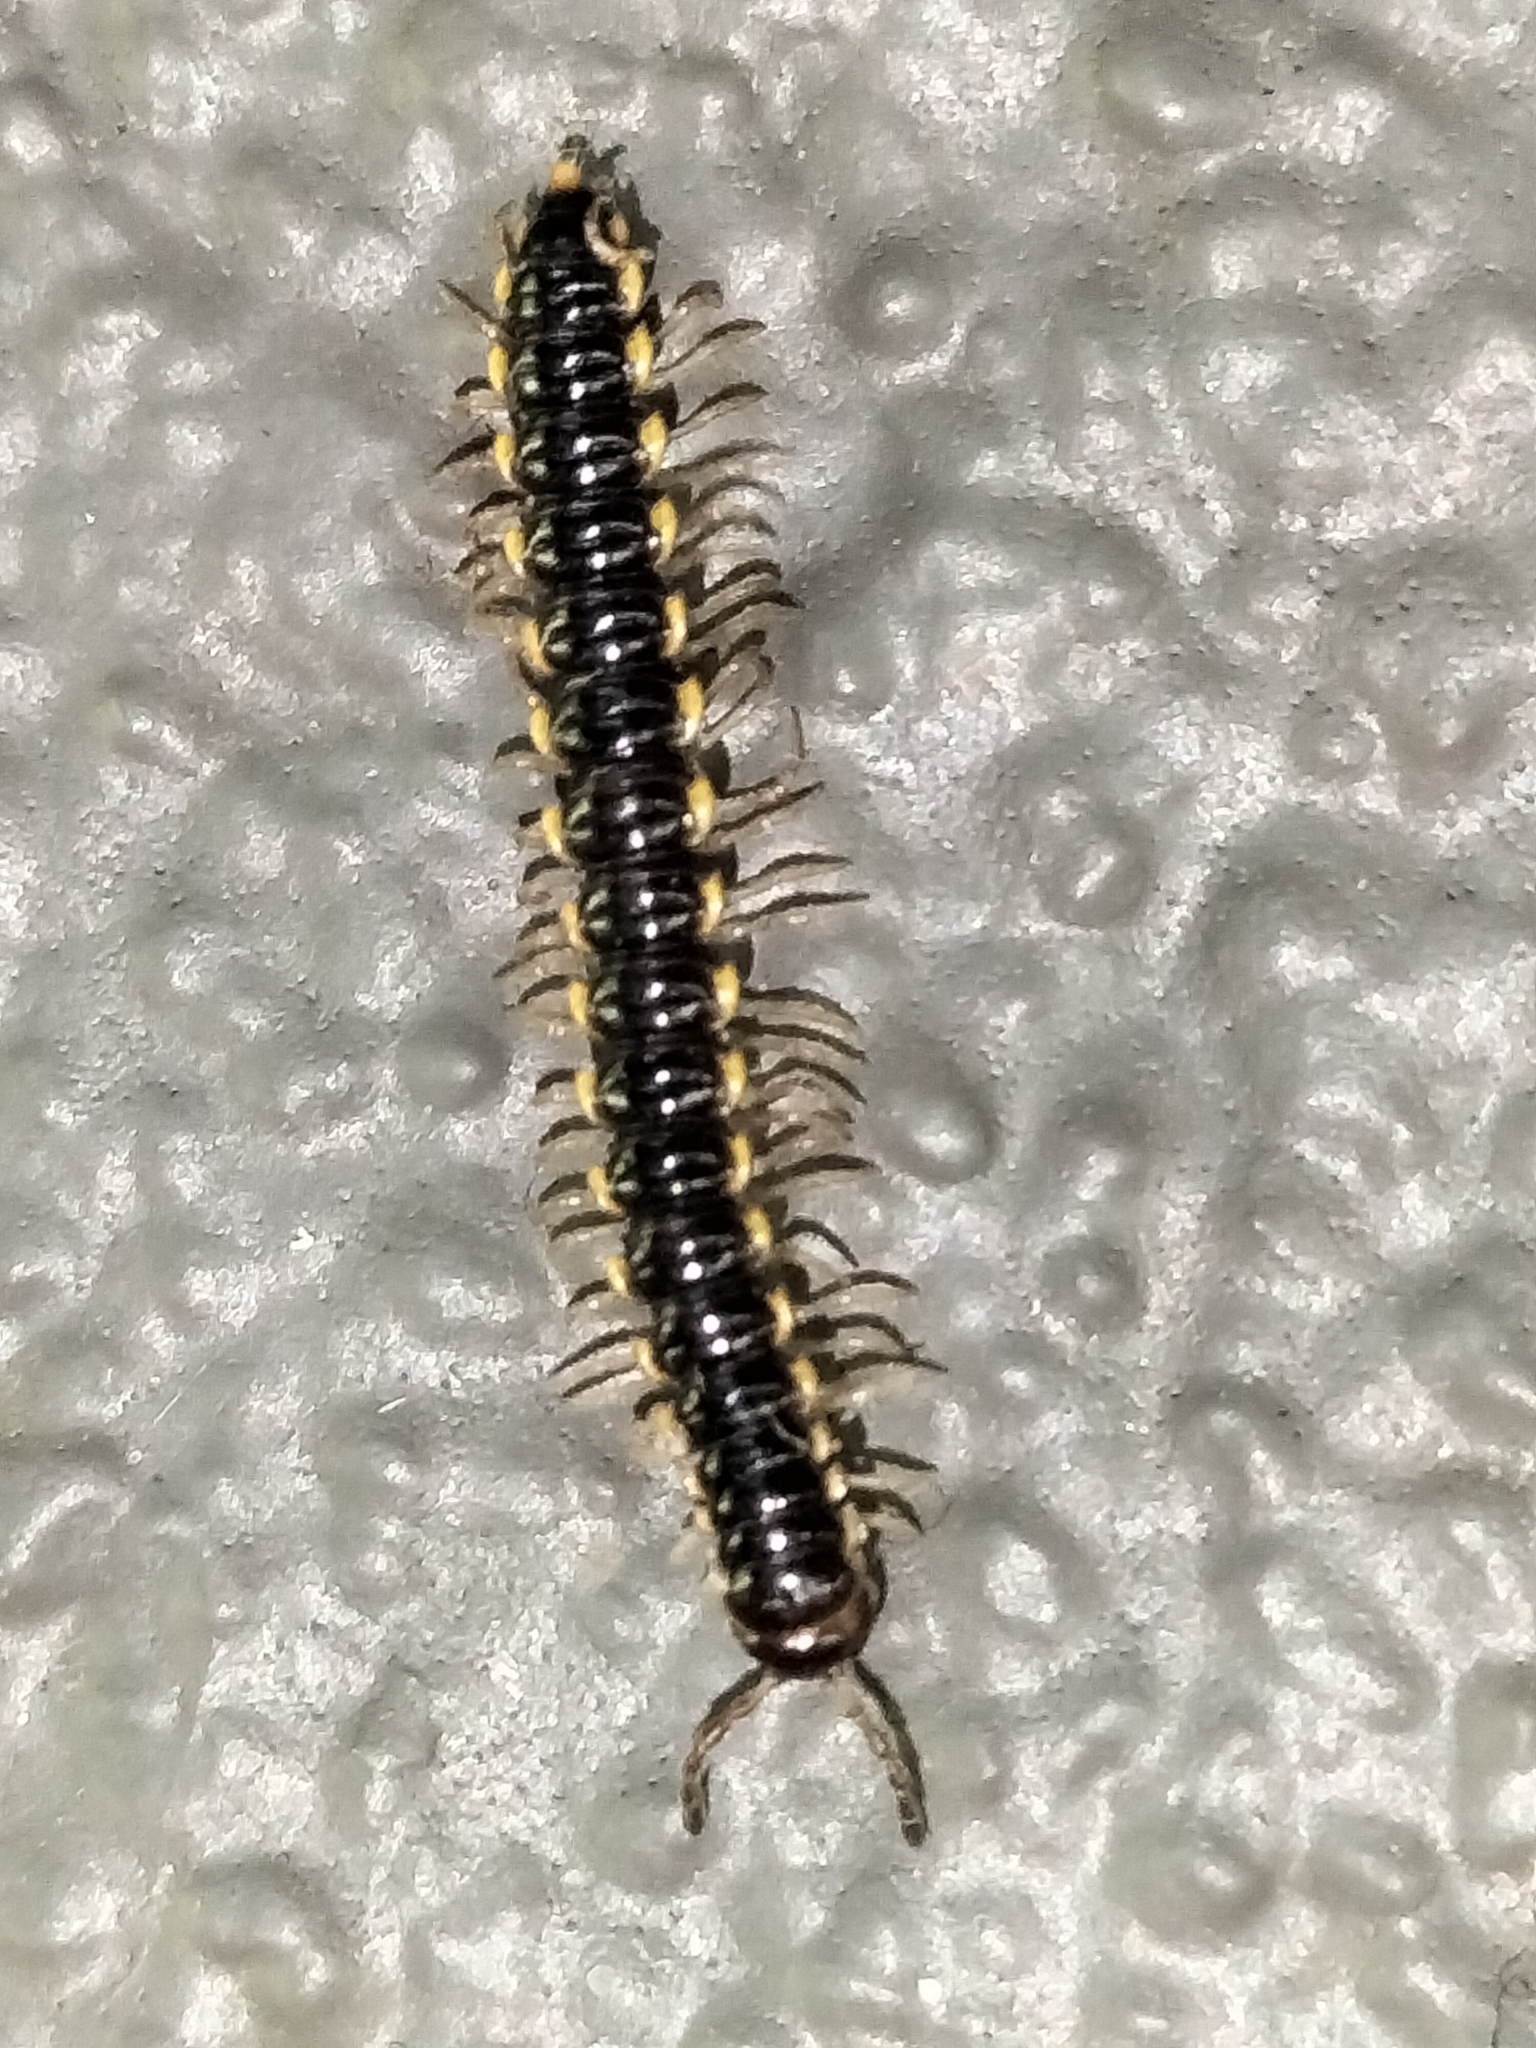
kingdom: Animalia
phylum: Arthropoda
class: Diplopoda
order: Polydesmida
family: Paradoxosomatidae
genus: Orthomorpha
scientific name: Orthomorpha coarctata
